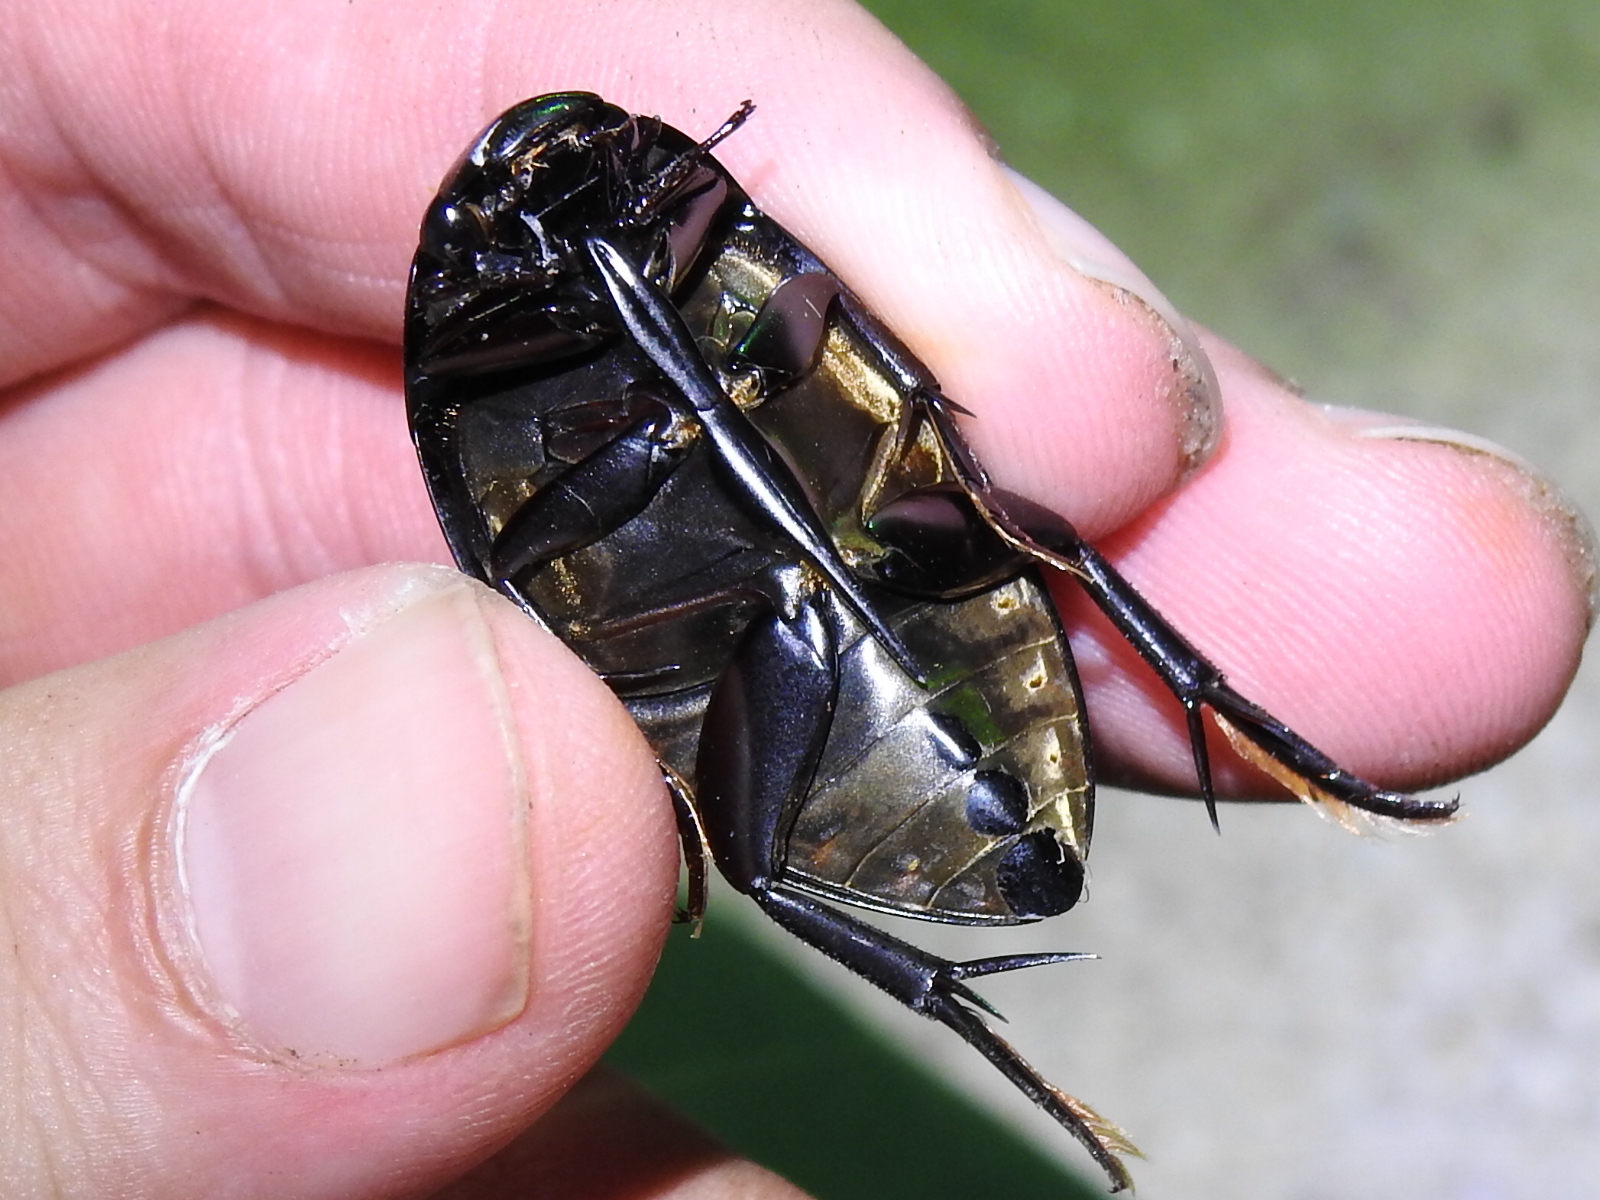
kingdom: Animalia
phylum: Arthropoda
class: Insecta
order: Coleoptera
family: Hydrophilidae
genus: Hydrophilus
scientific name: Hydrophilus ovatus
